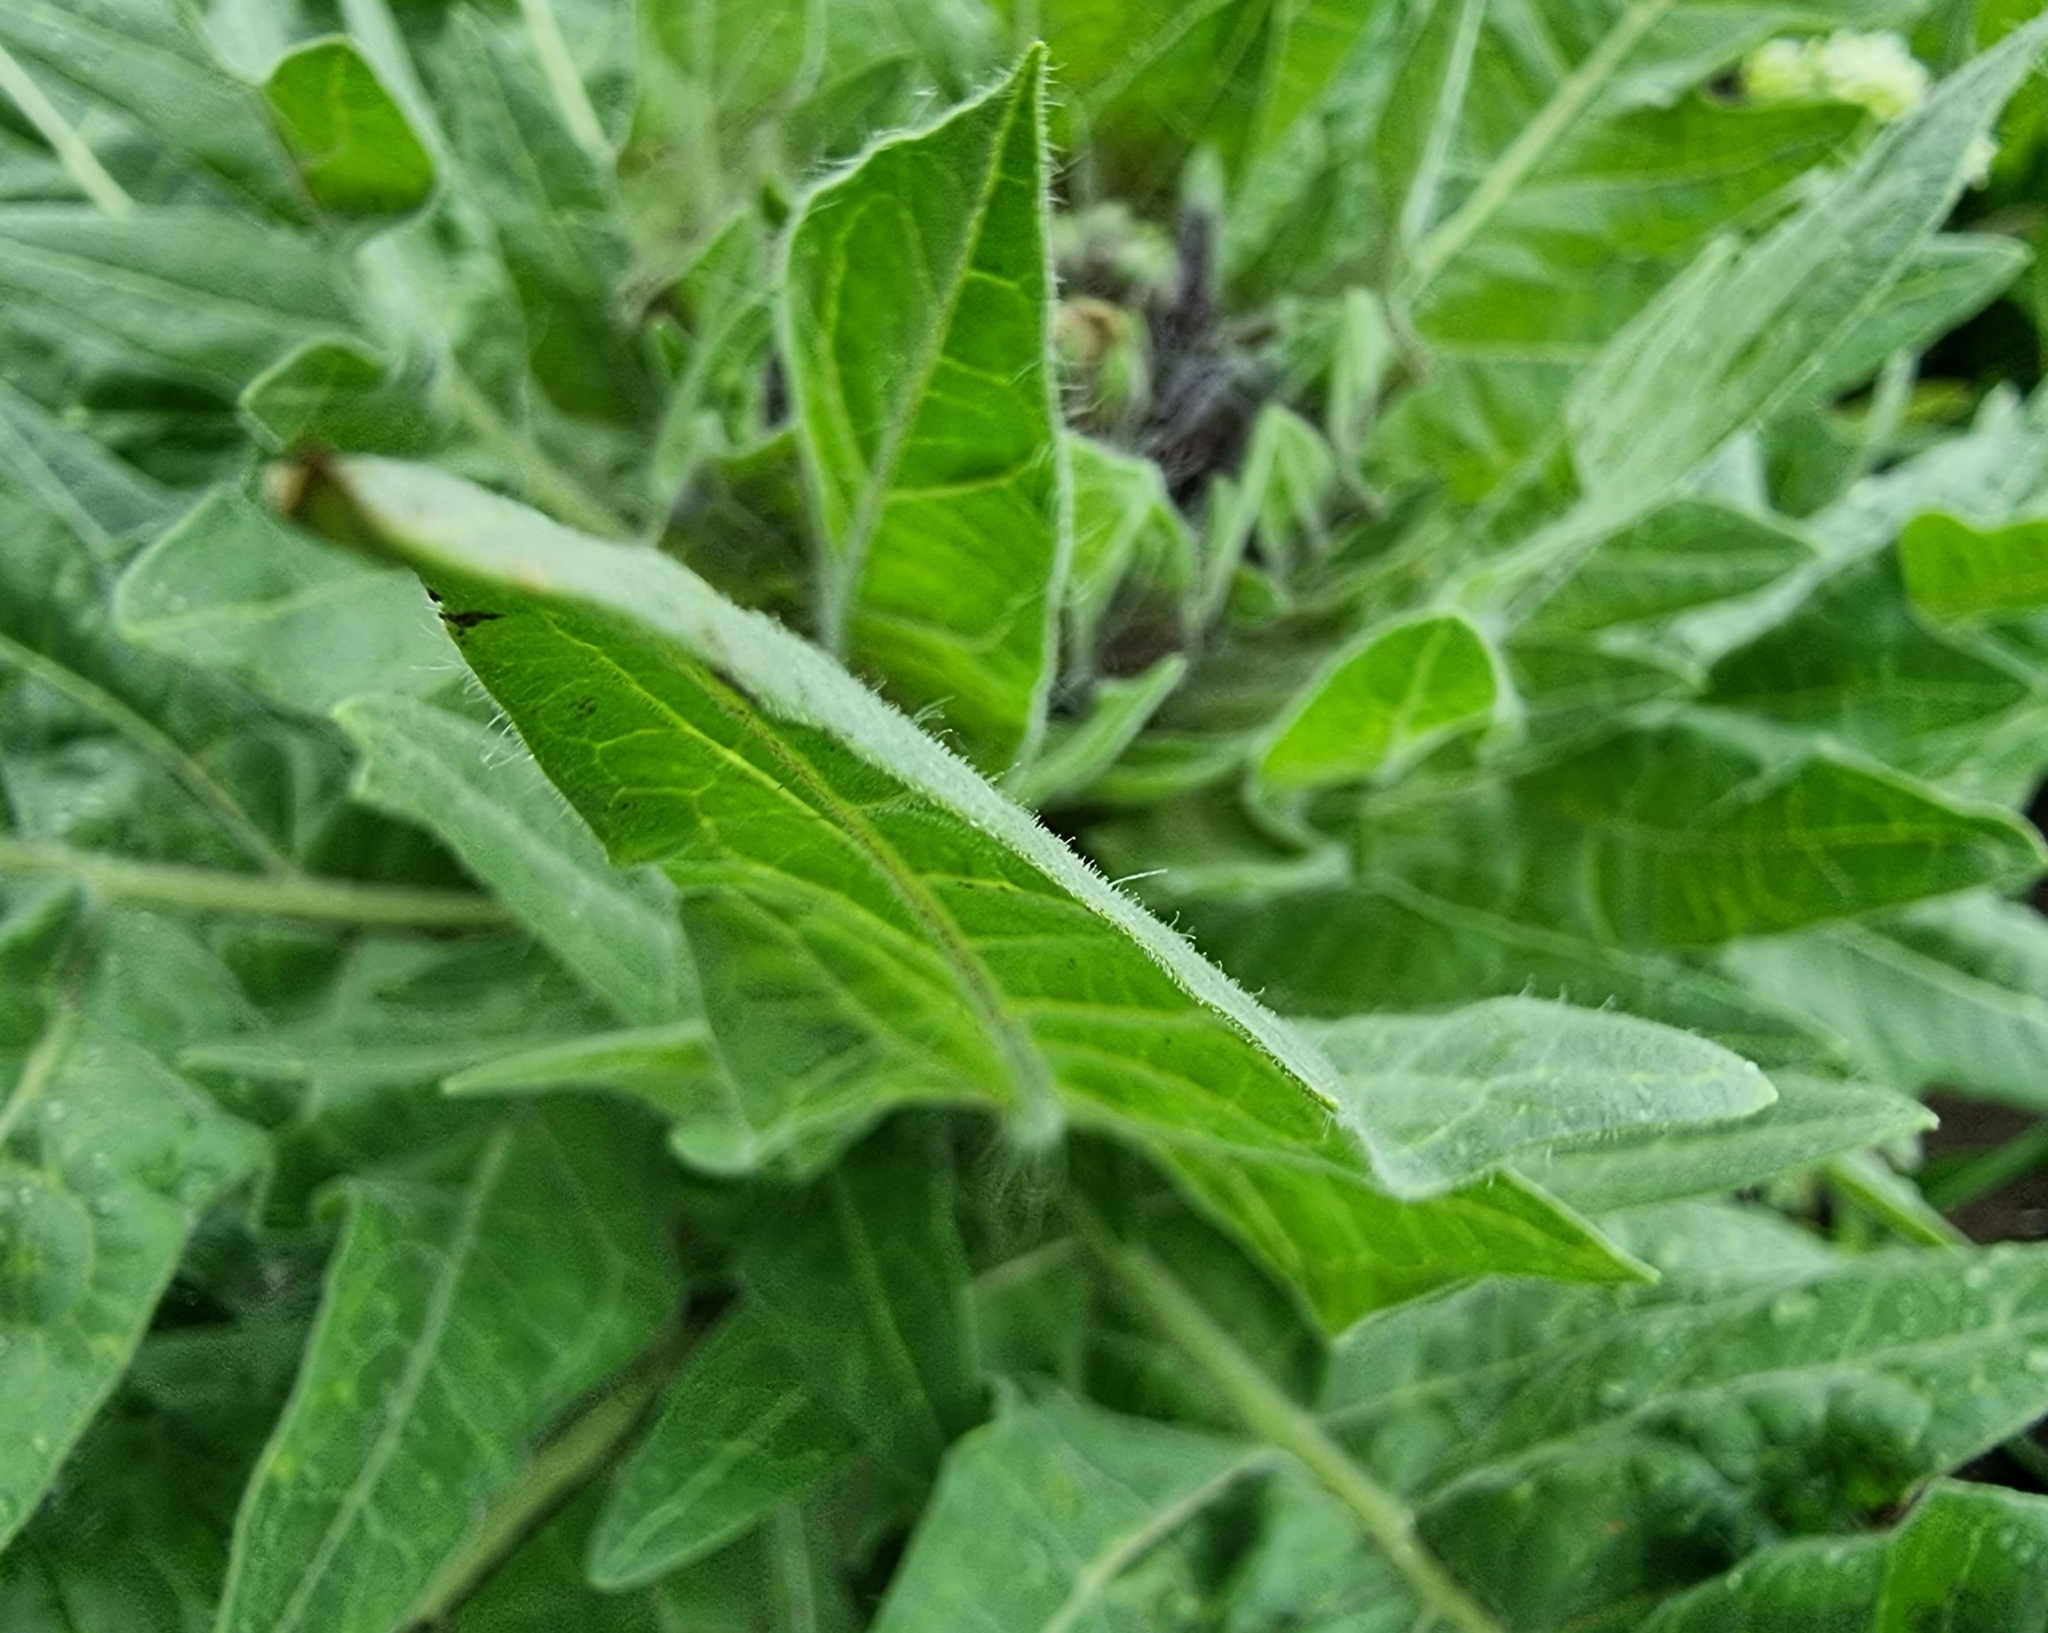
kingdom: Plantae
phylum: Tracheophyta
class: Magnoliopsida
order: Solanales
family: Solanaceae
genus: Hyoscyamus
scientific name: Hyoscyamus niger
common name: Henbane
